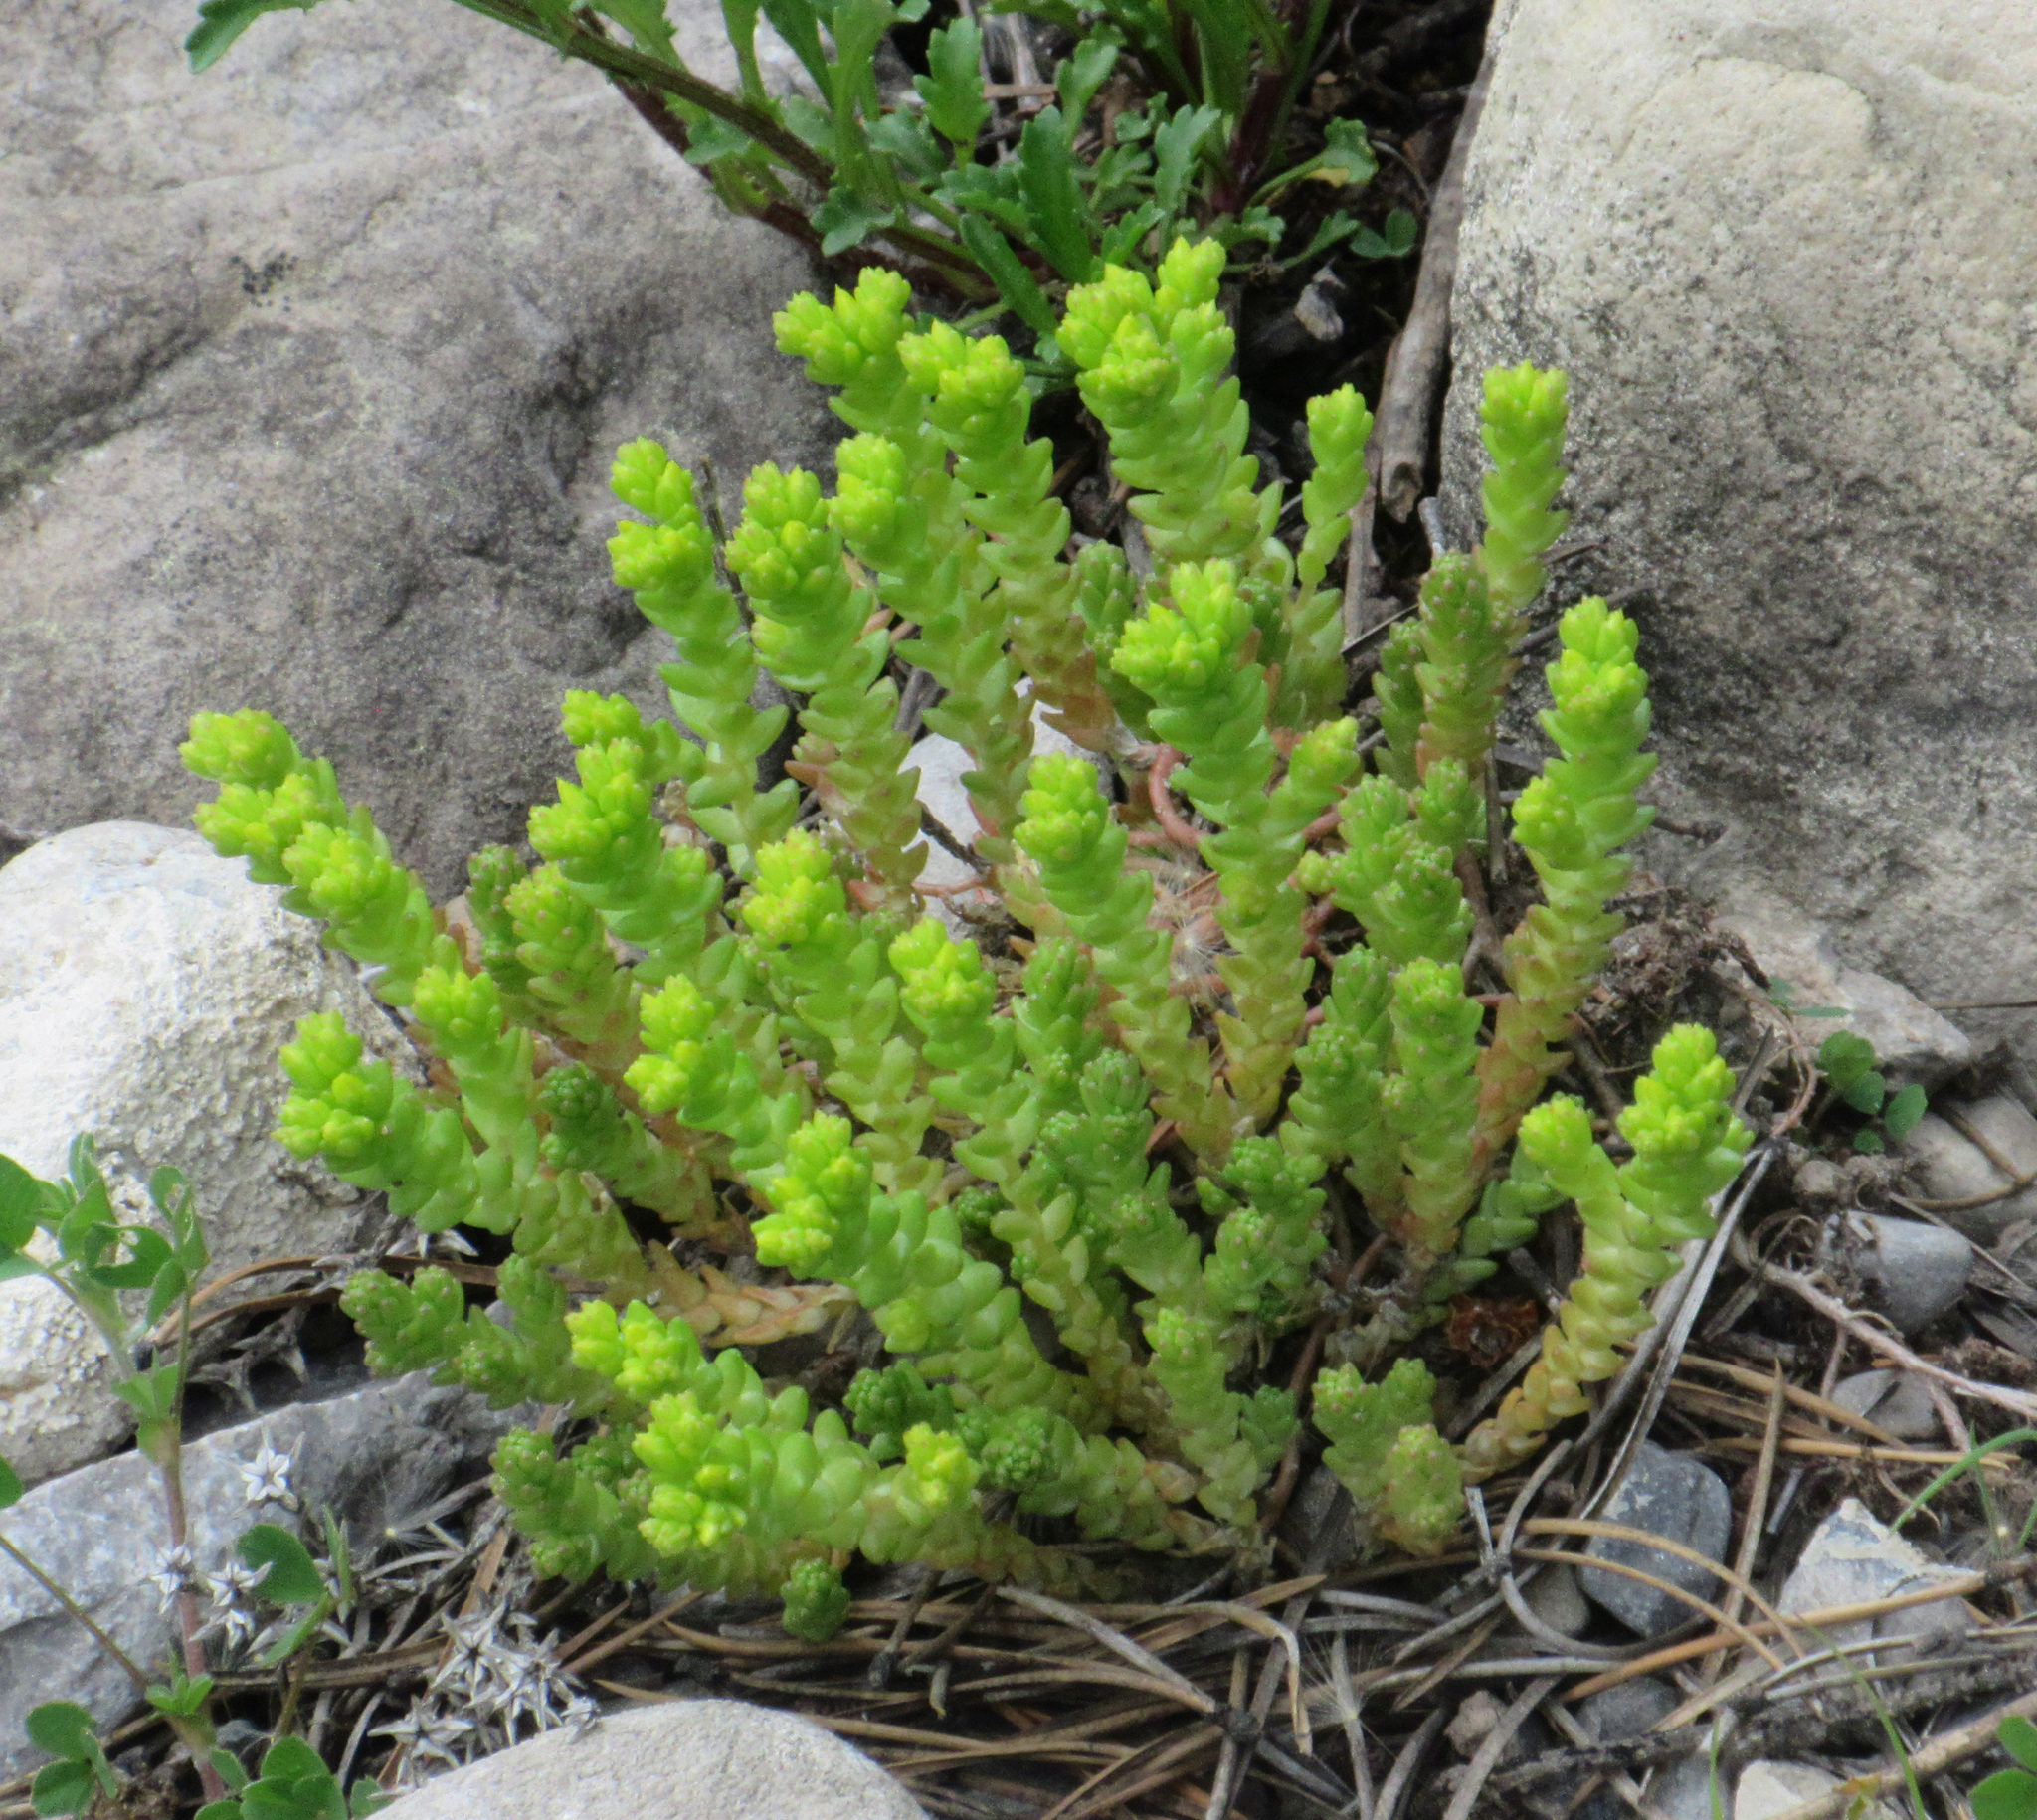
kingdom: Plantae
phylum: Tracheophyta
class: Magnoliopsida
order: Saxifragales
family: Crassulaceae
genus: Sedum
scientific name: Sedum acre
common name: Biting stonecrop
